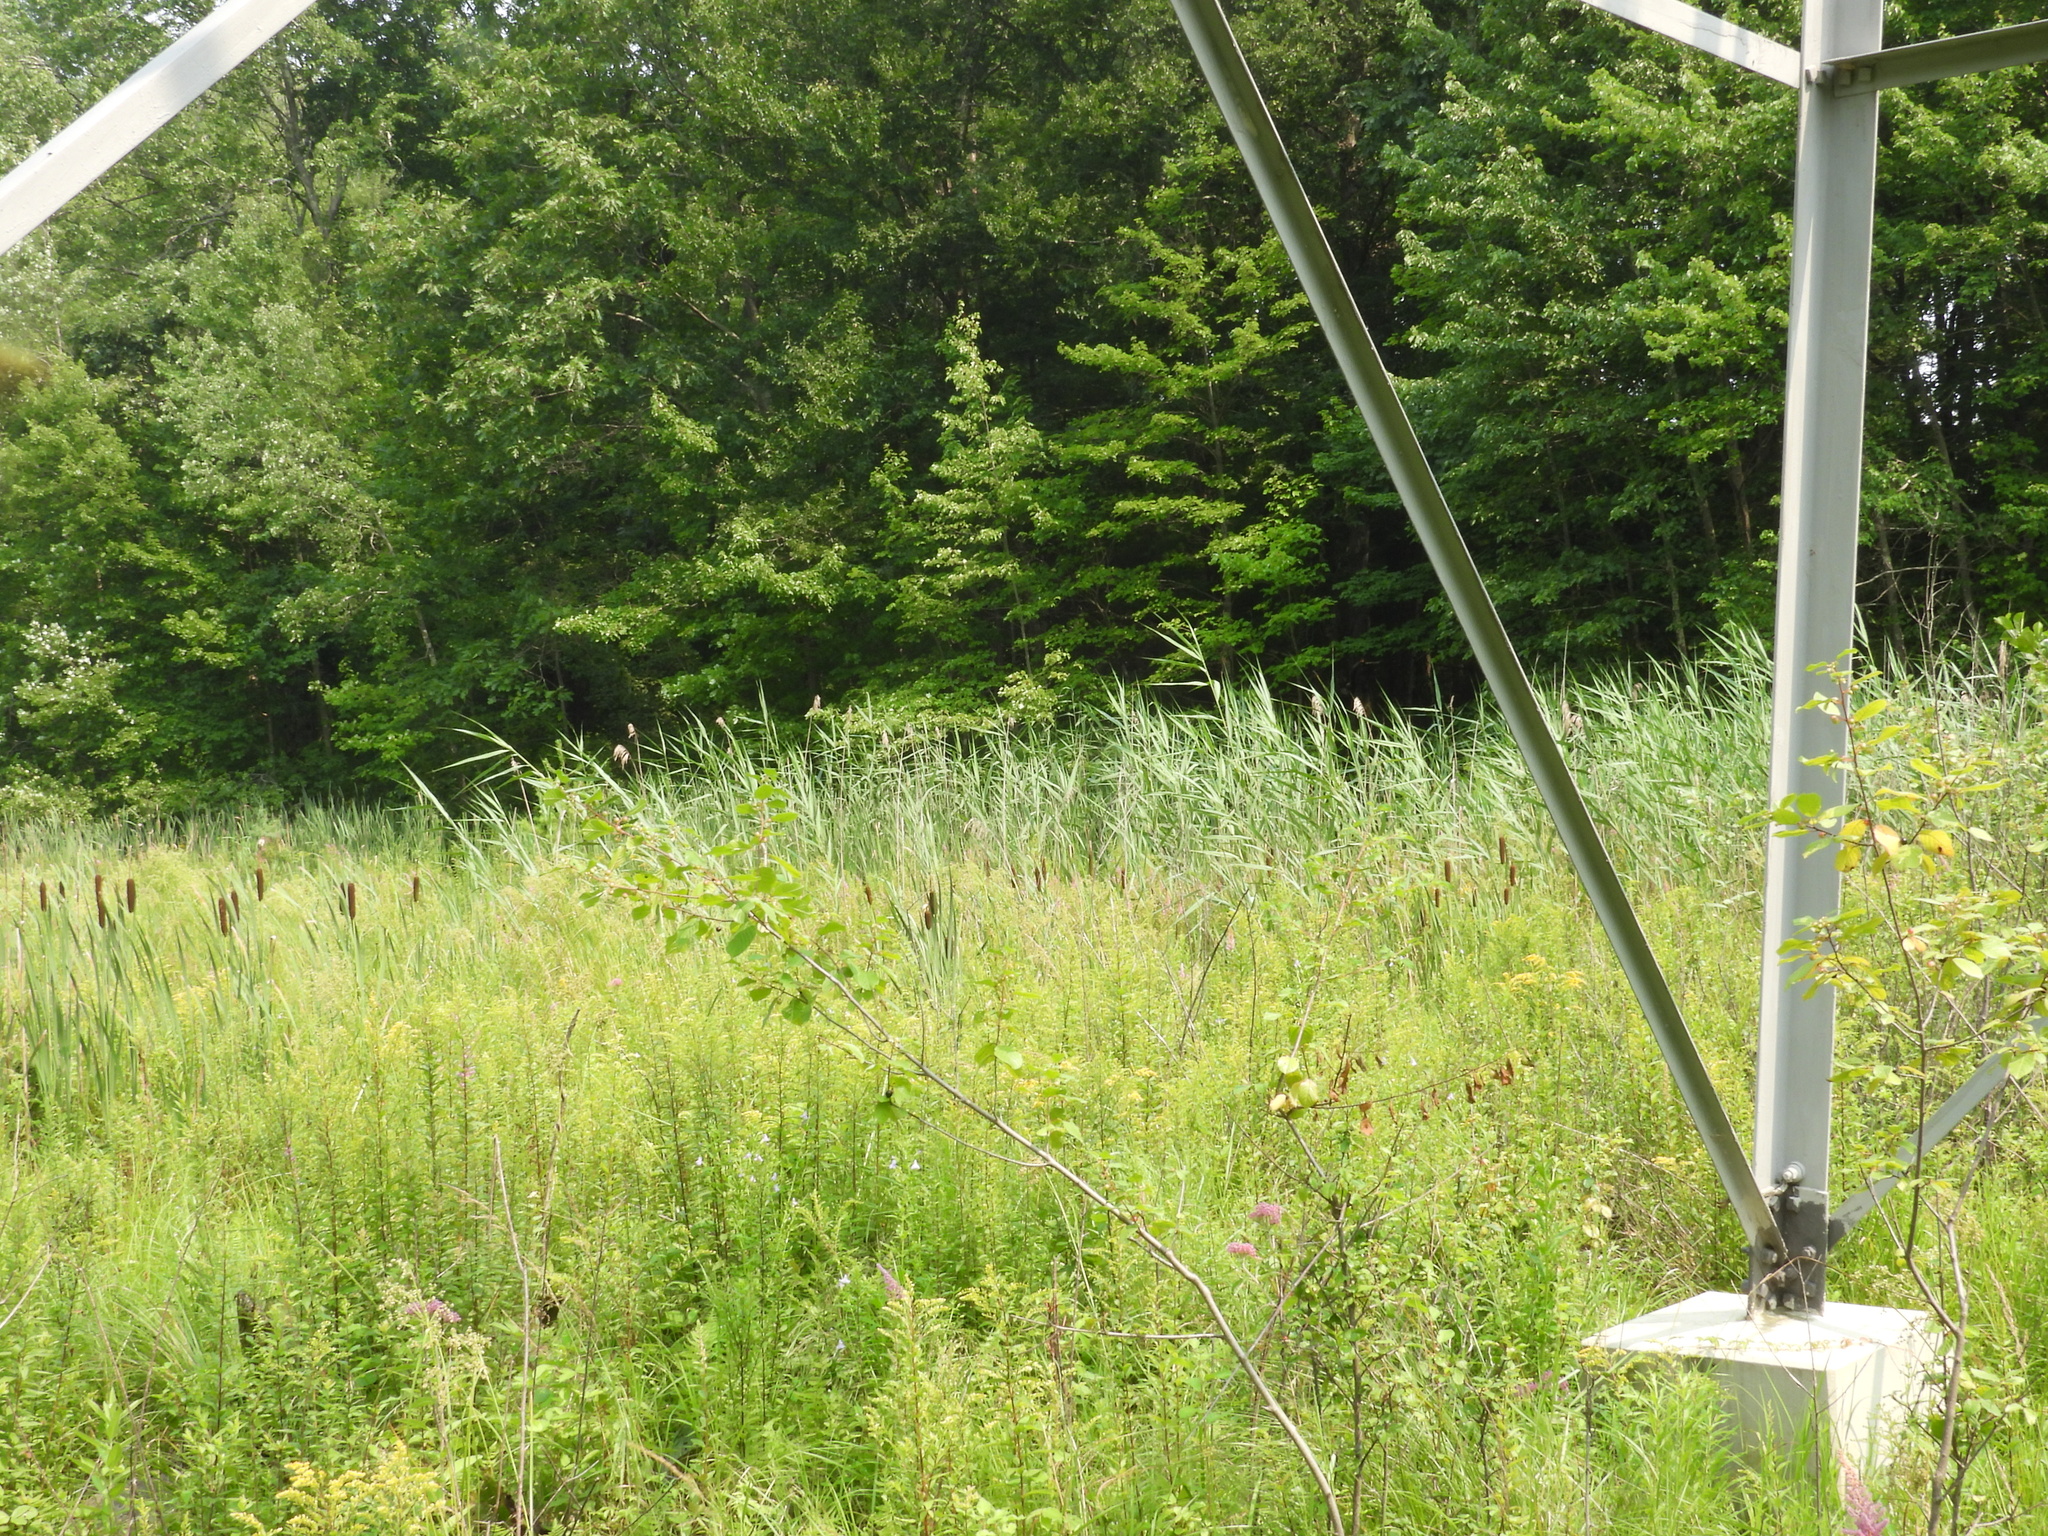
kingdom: Plantae
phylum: Tracheophyta
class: Liliopsida
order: Poales
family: Poaceae
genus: Phragmites
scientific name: Phragmites australis
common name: Common reed
